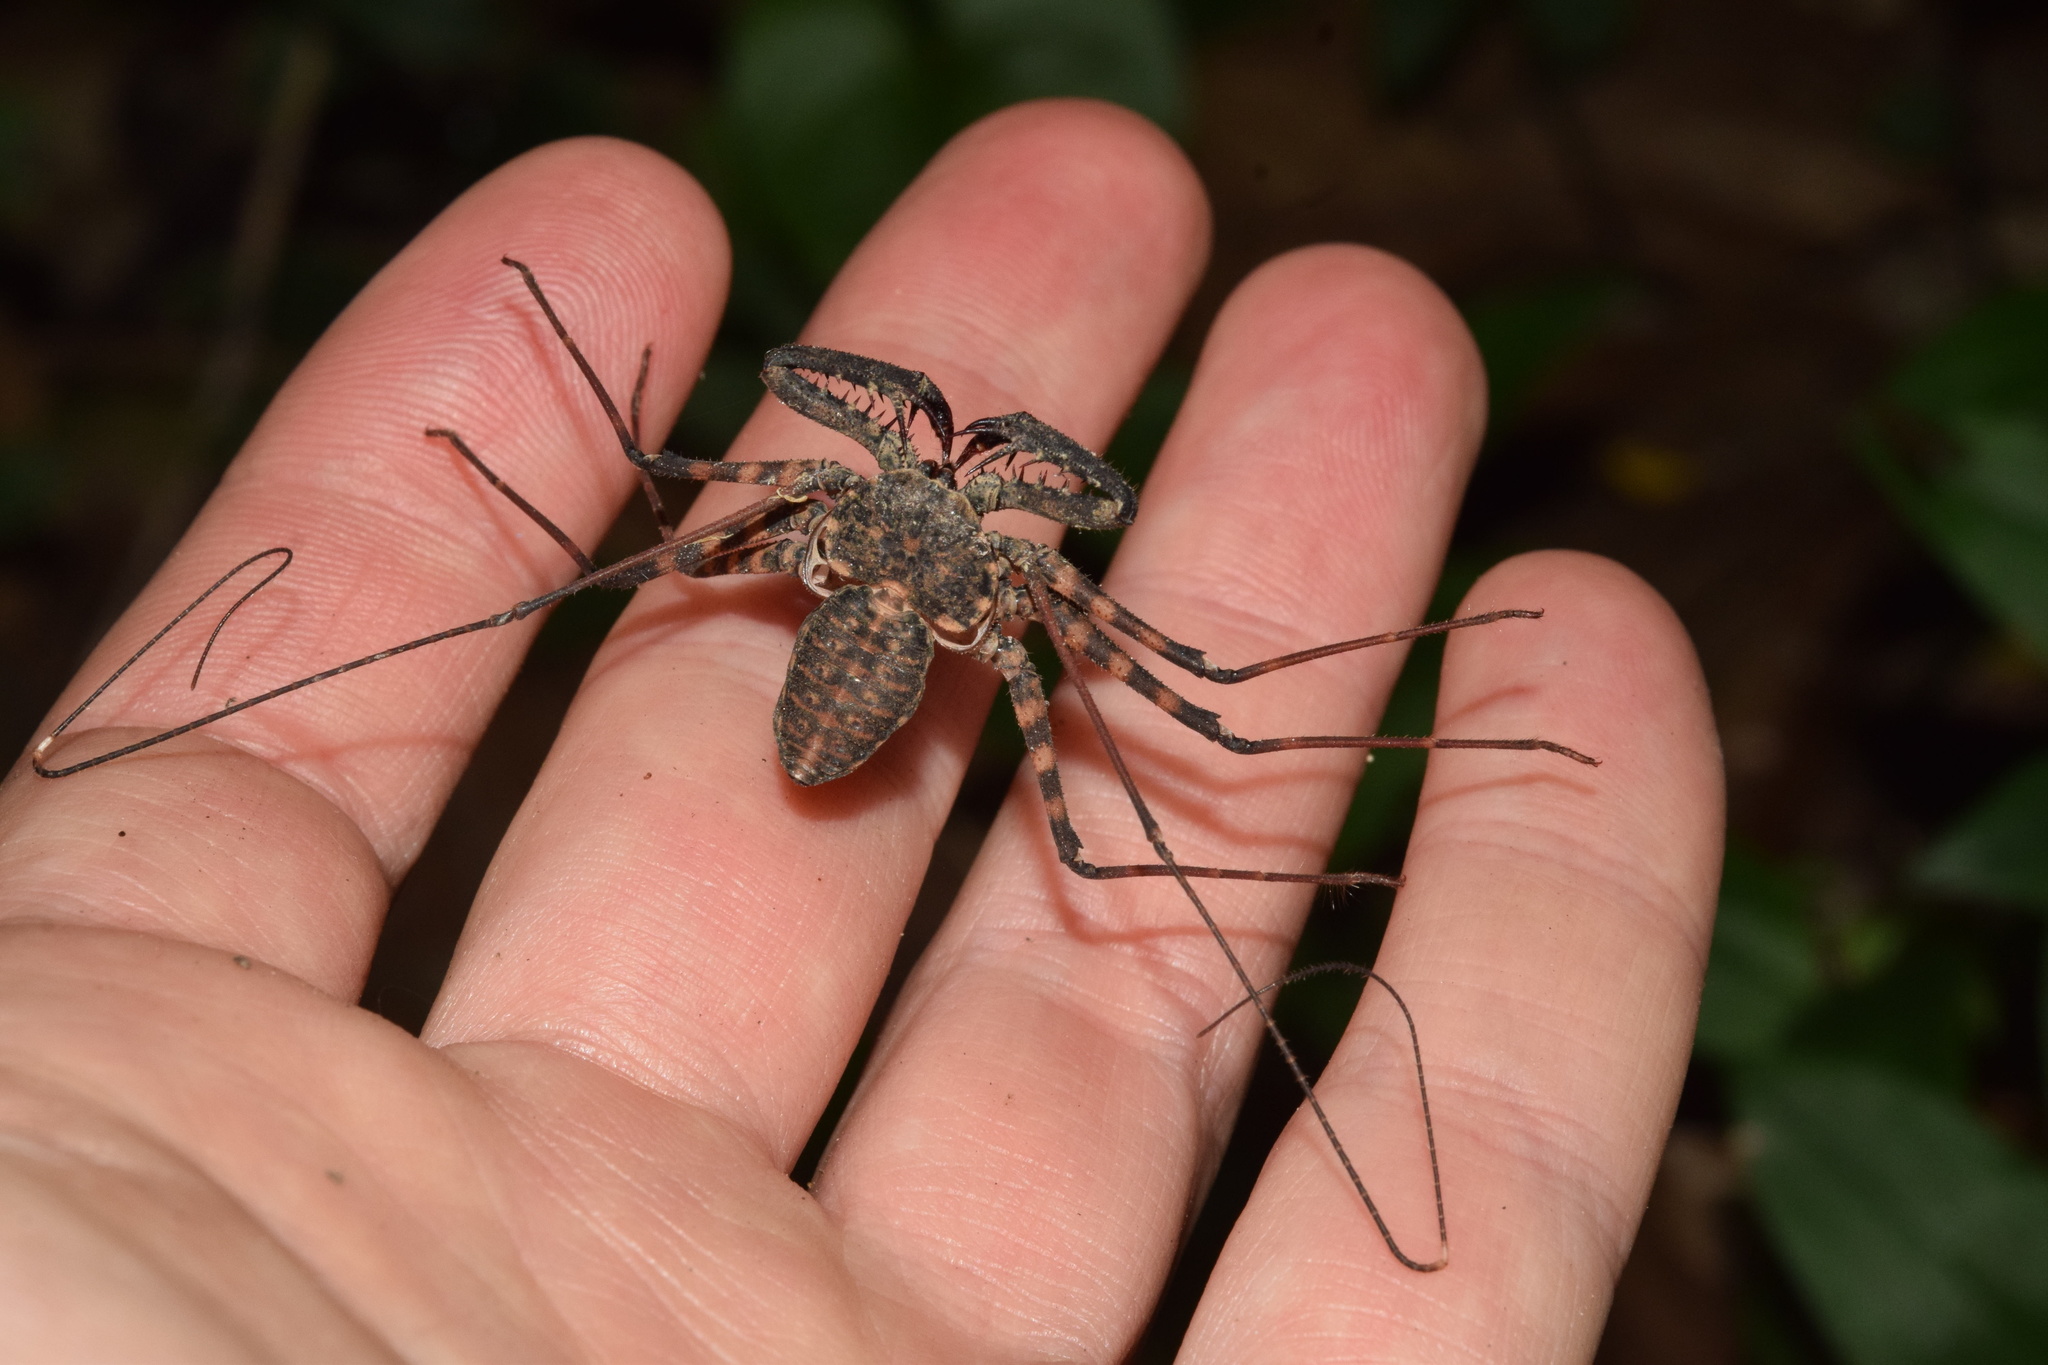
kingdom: Animalia
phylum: Arthropoda
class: Arachnida
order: Amblypygi
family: Phrynichidae
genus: Damon
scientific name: Damon annulatipes
